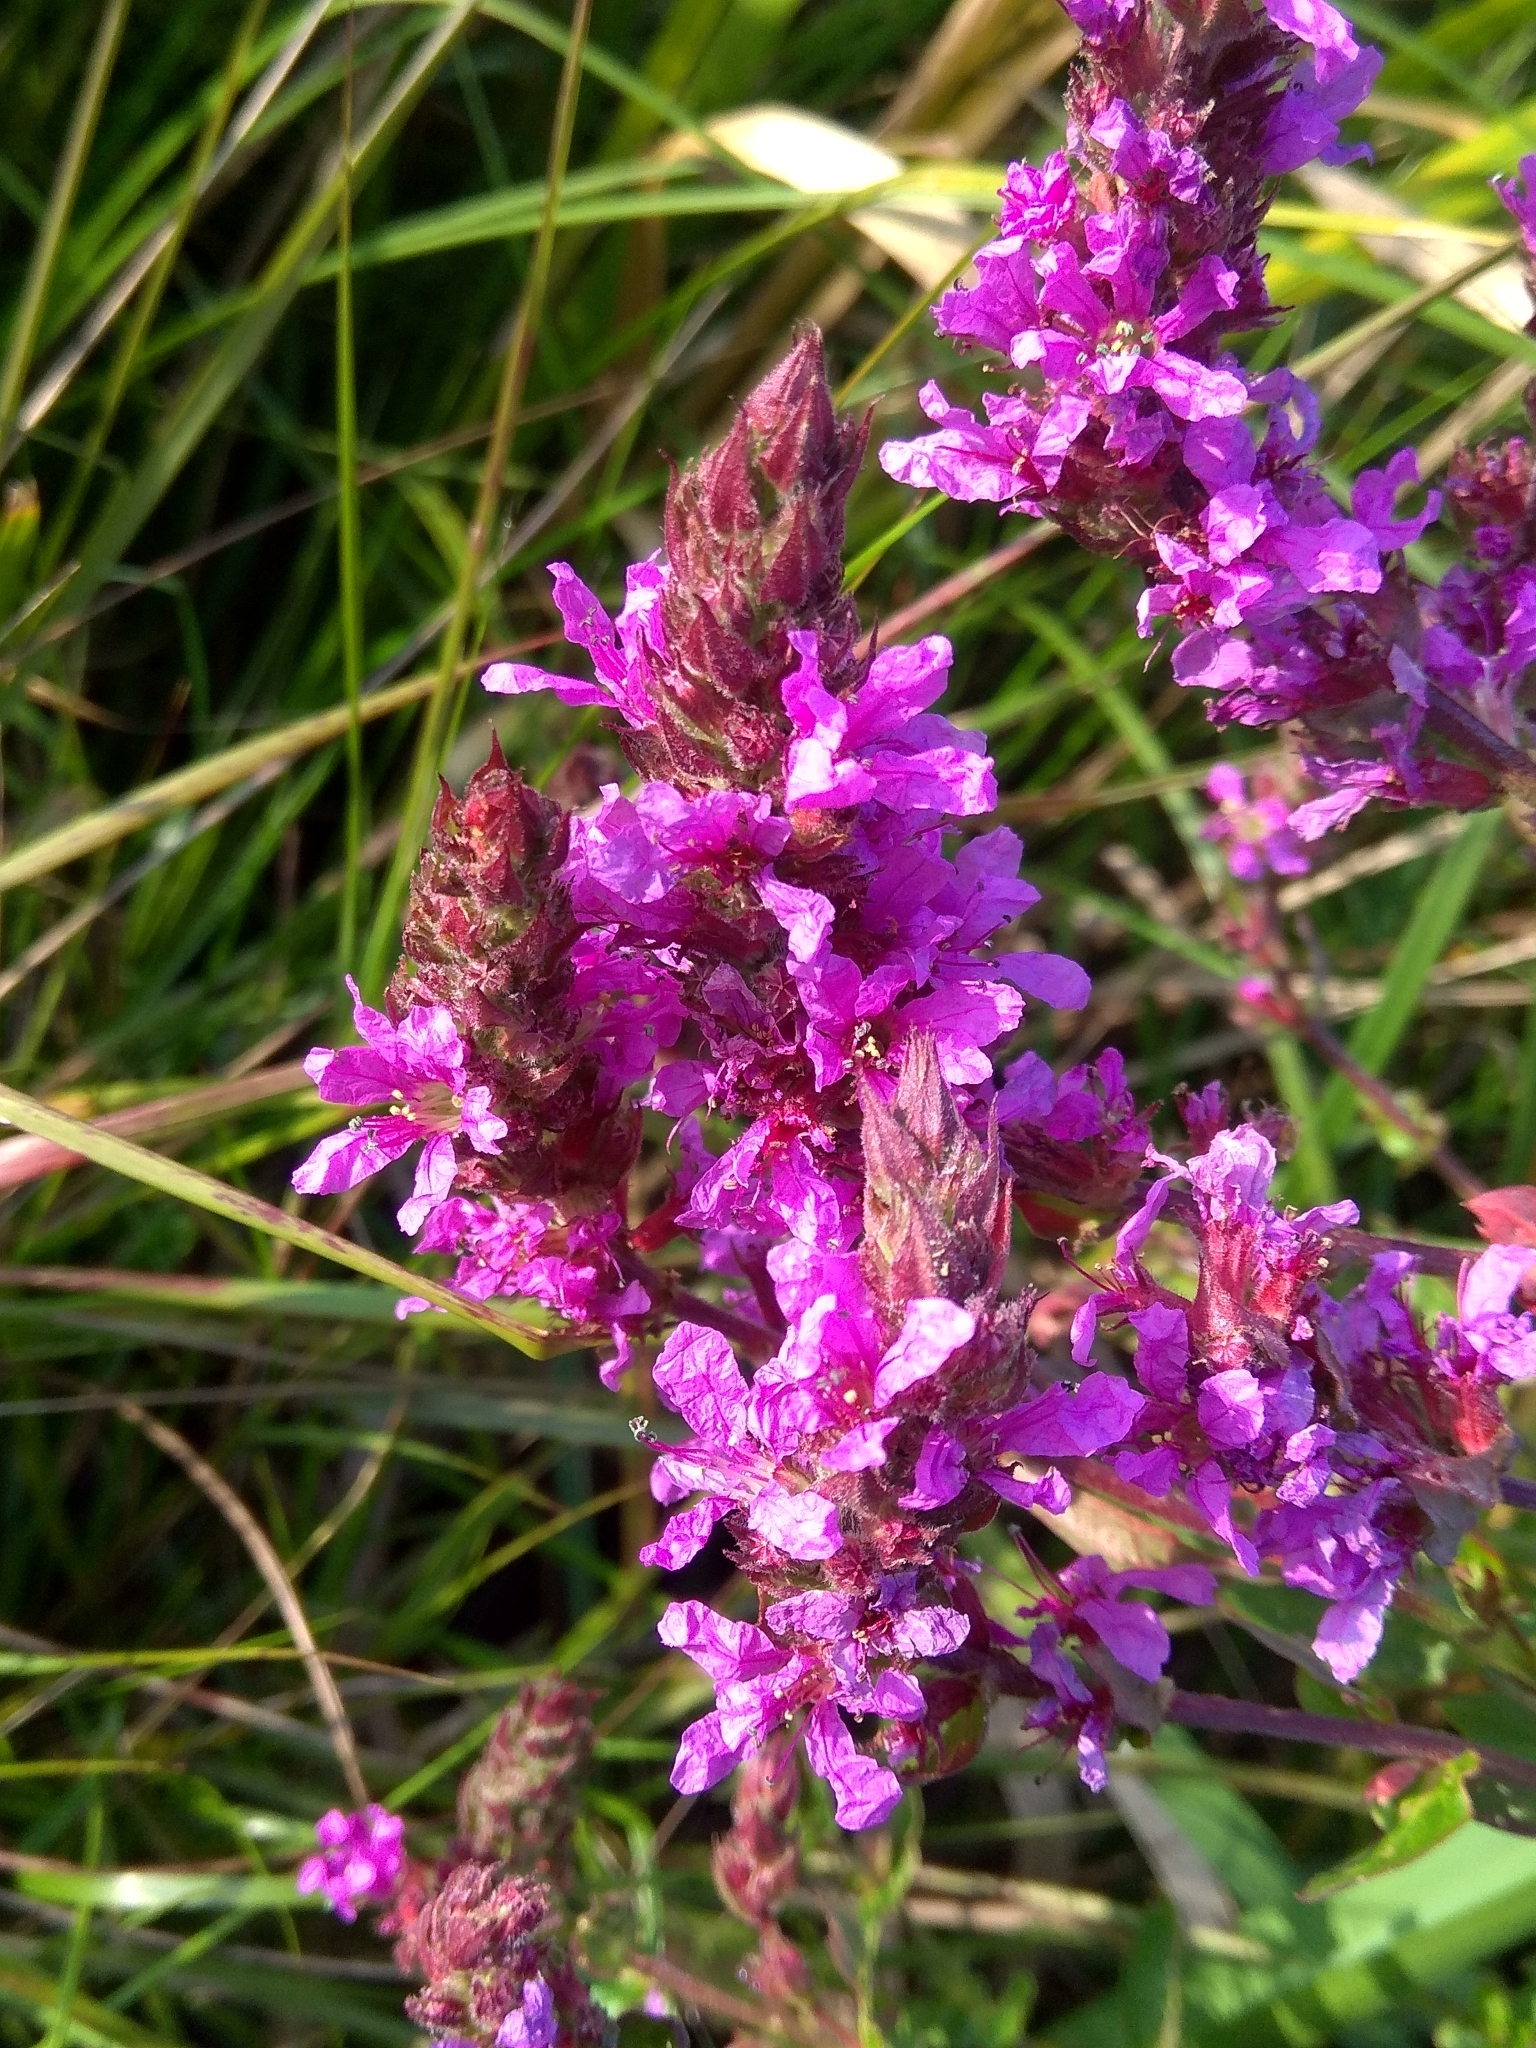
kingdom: Plantae
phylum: Tracheophyta
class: Magnoliopsida
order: Myrtales
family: Lythraceae
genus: Lythrum
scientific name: Lythrum salicaria
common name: Purple loosestrife
